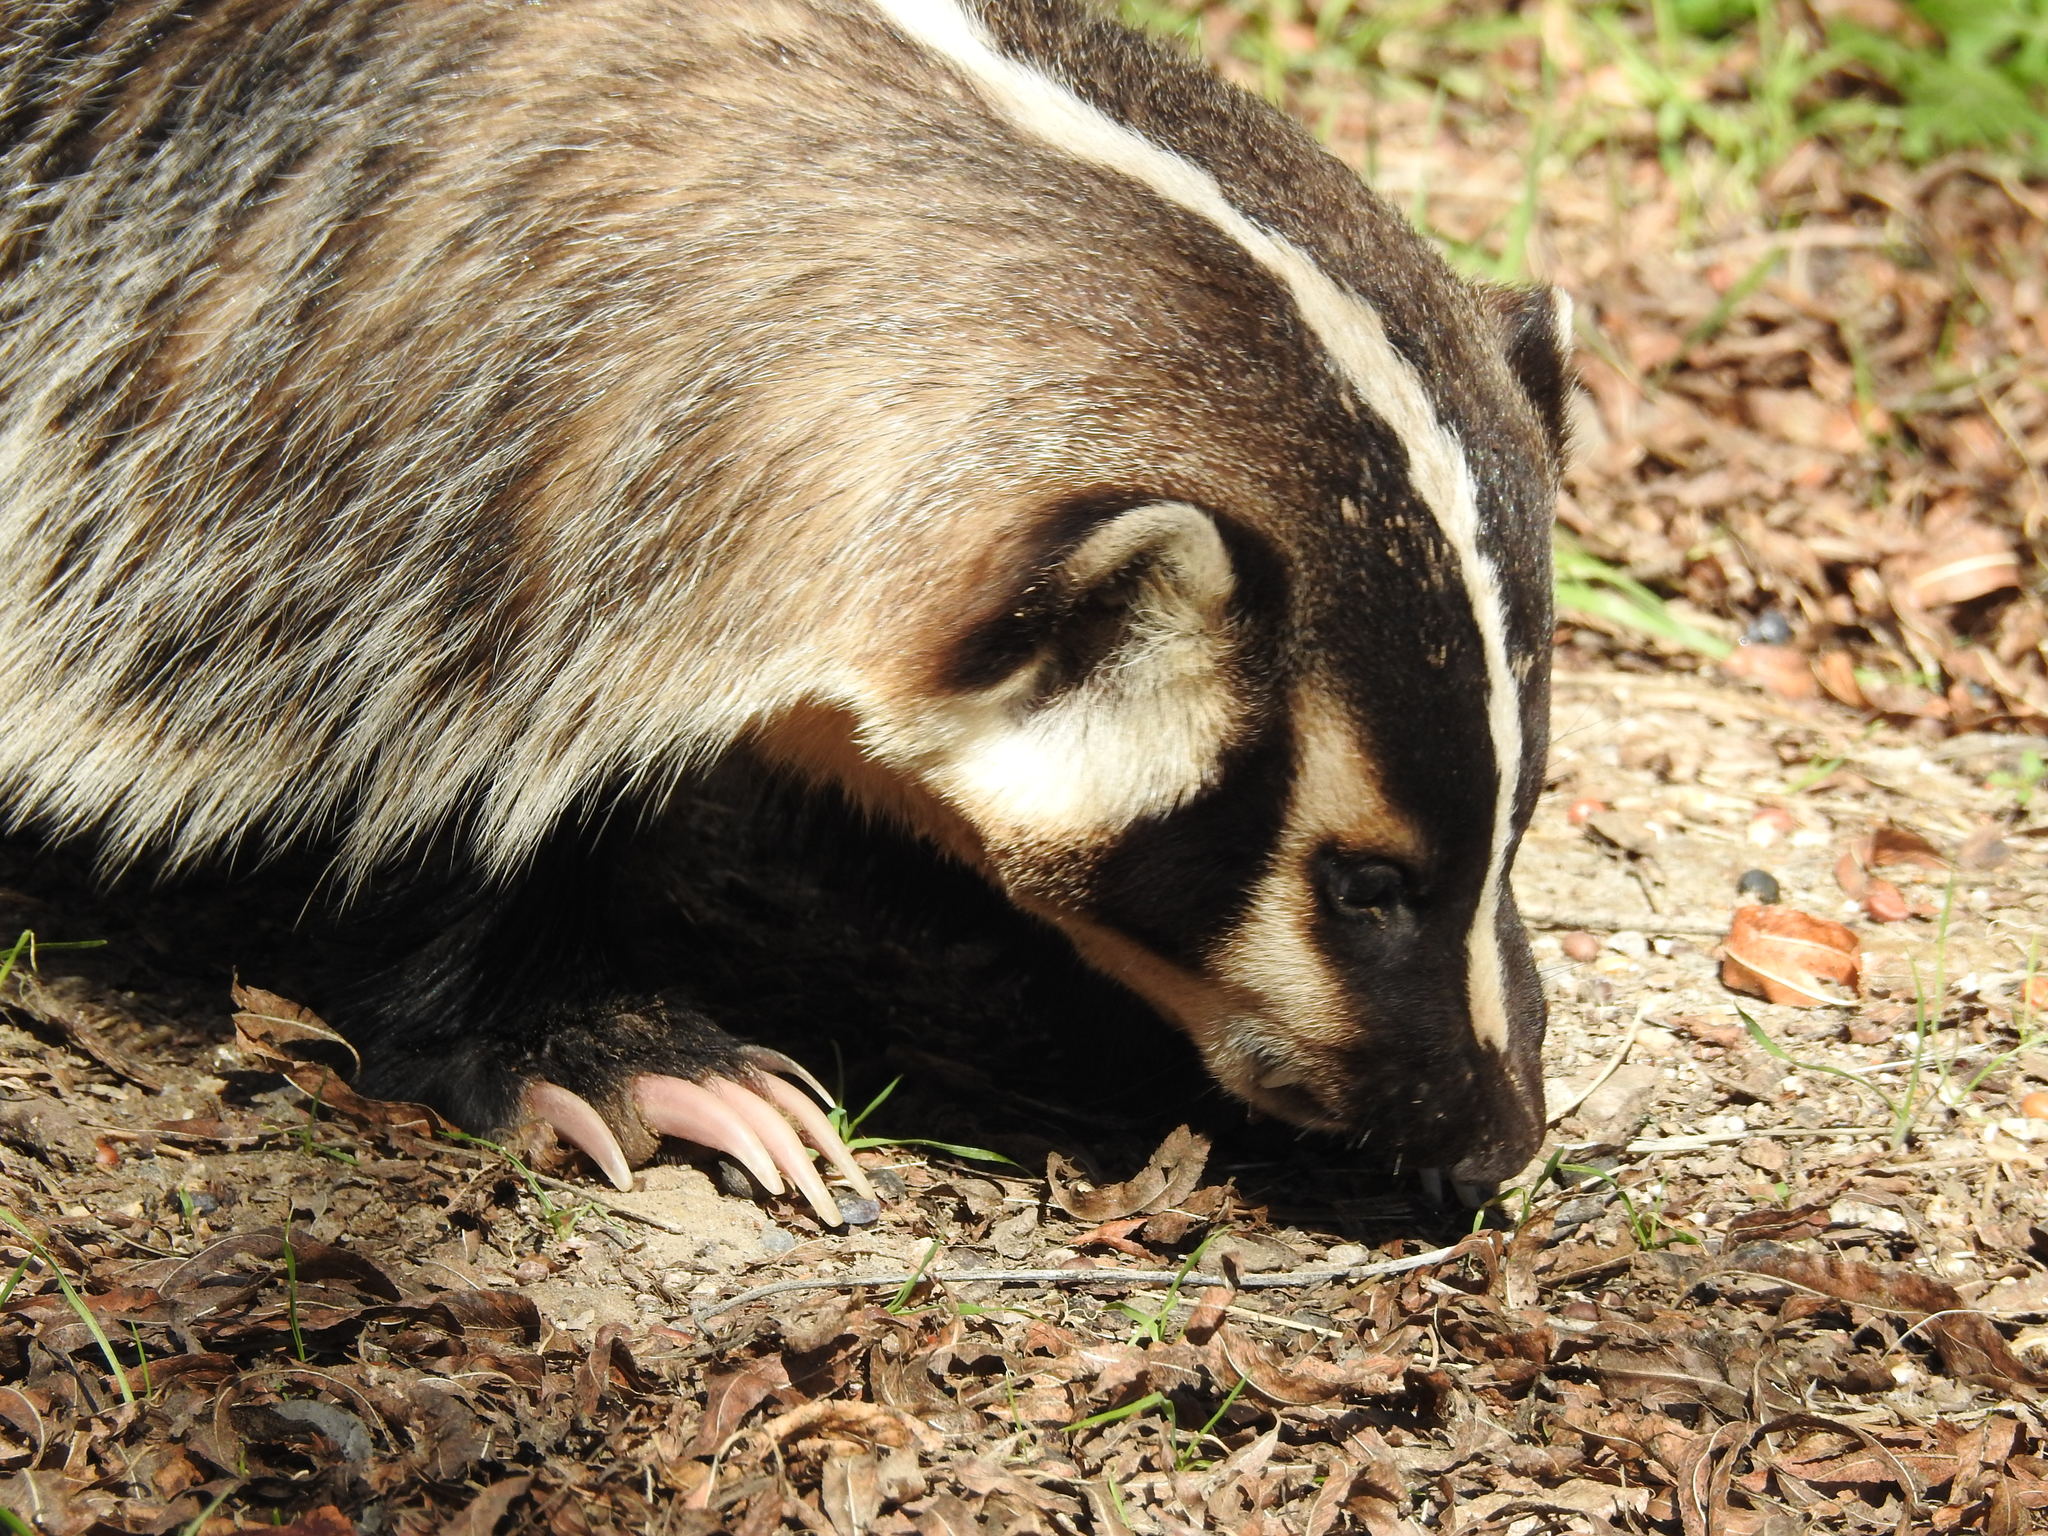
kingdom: Animalia
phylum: Chordata
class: Mammalia
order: Carnivora
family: Mustelidae
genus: Taxidea
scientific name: Taxidea taxus
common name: American badger
